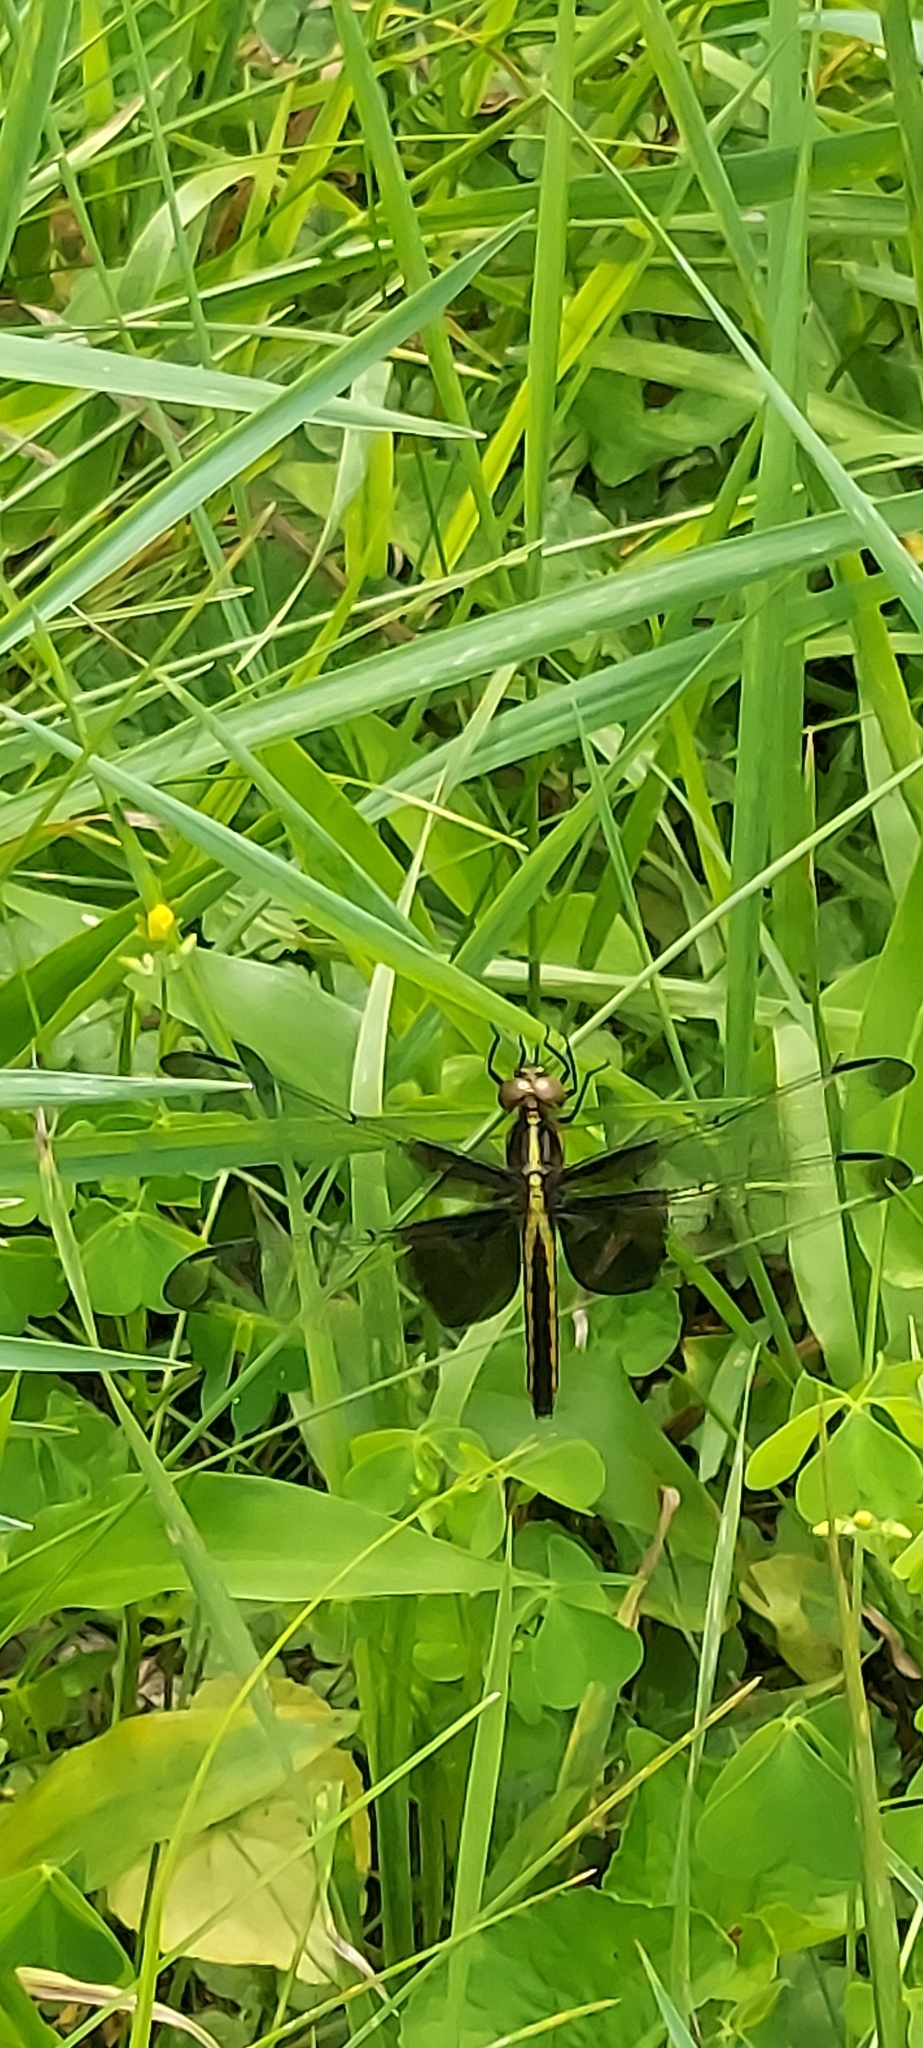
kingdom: Animalia
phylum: Arthropoda
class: Insecta
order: Odonata
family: Libellulidae
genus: Libellula
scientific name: Libellula luctuosa
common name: Widow skimmer
